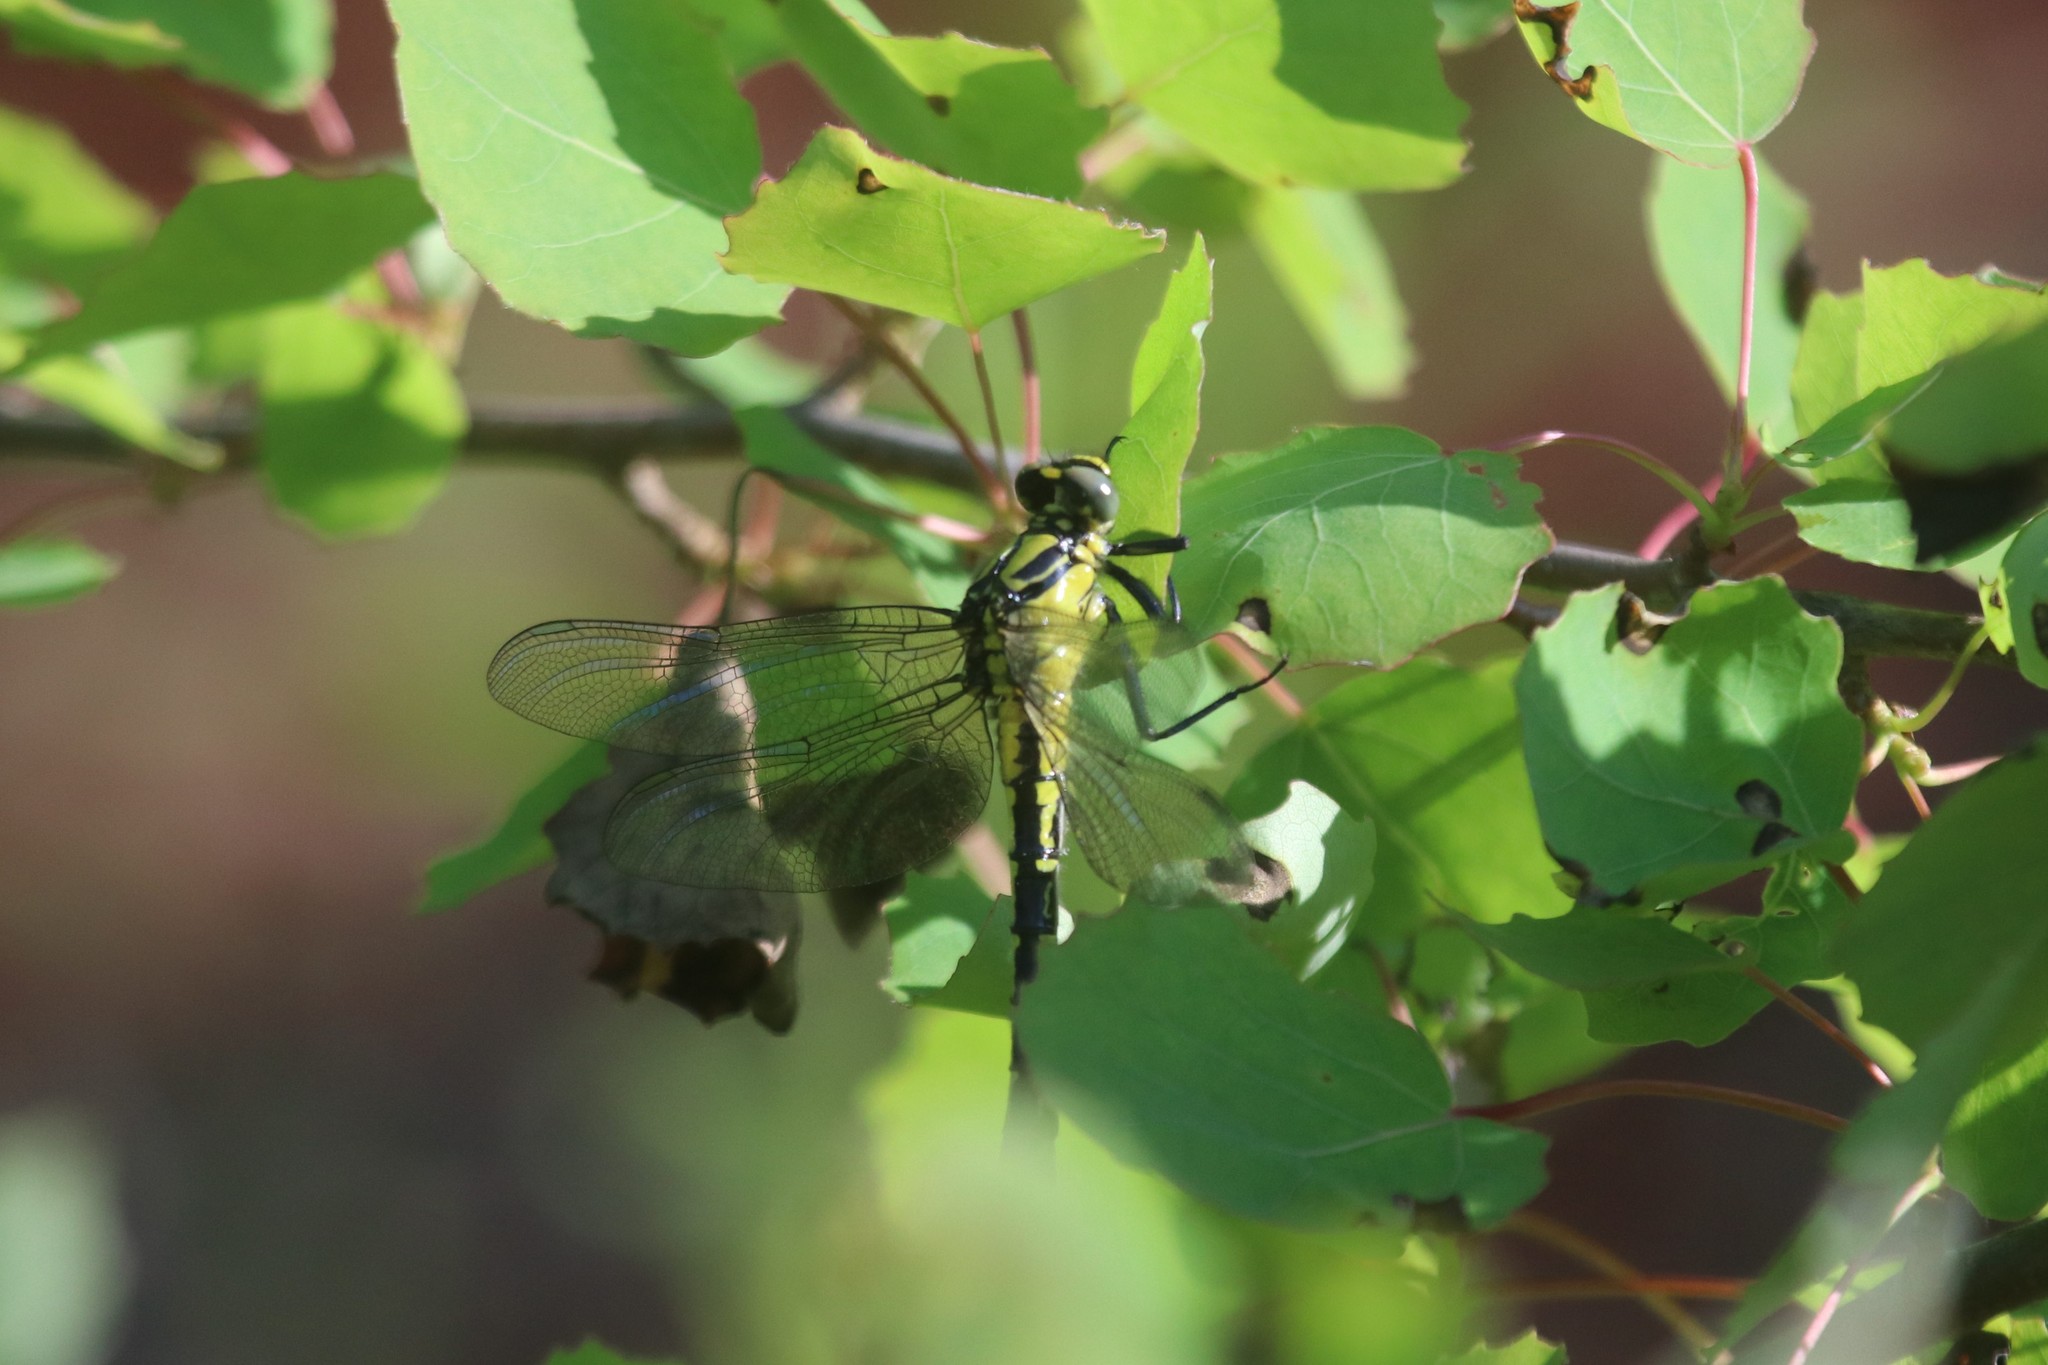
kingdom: Animalia
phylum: Arthropoda
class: Insecta
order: Odonata
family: Gomphidae
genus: Gomphus
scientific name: Gomphus vulgatissimus
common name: Club-tailed dragonfly
